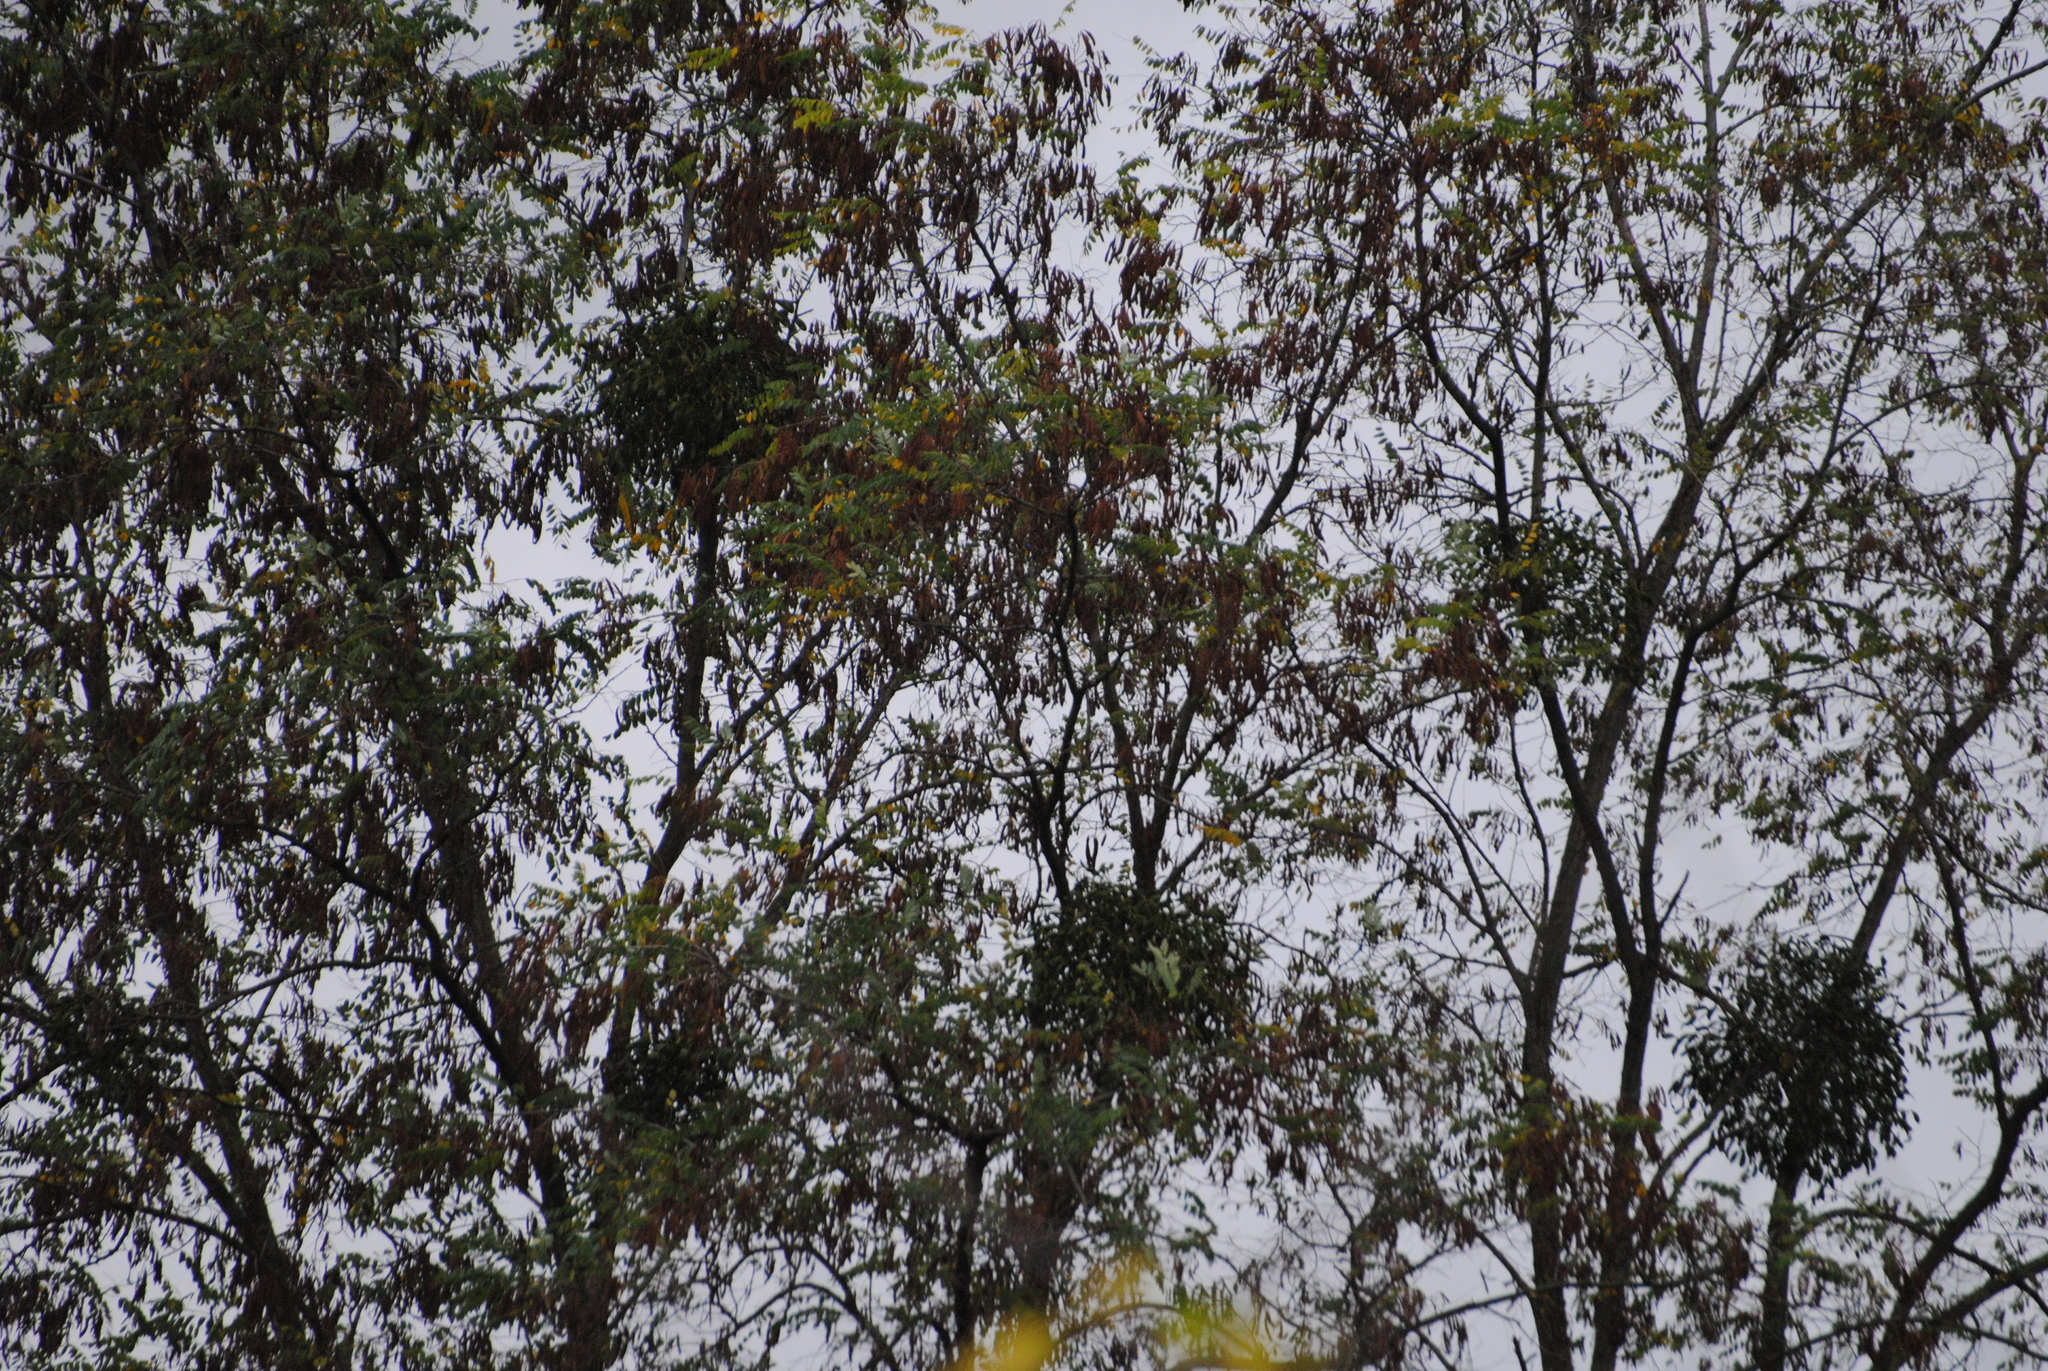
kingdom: Plantae
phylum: Tracheophyta
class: Magnoliopsida
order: Santalales
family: Viscaceae
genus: Viscum
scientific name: Viscum album
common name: Mistletoe
